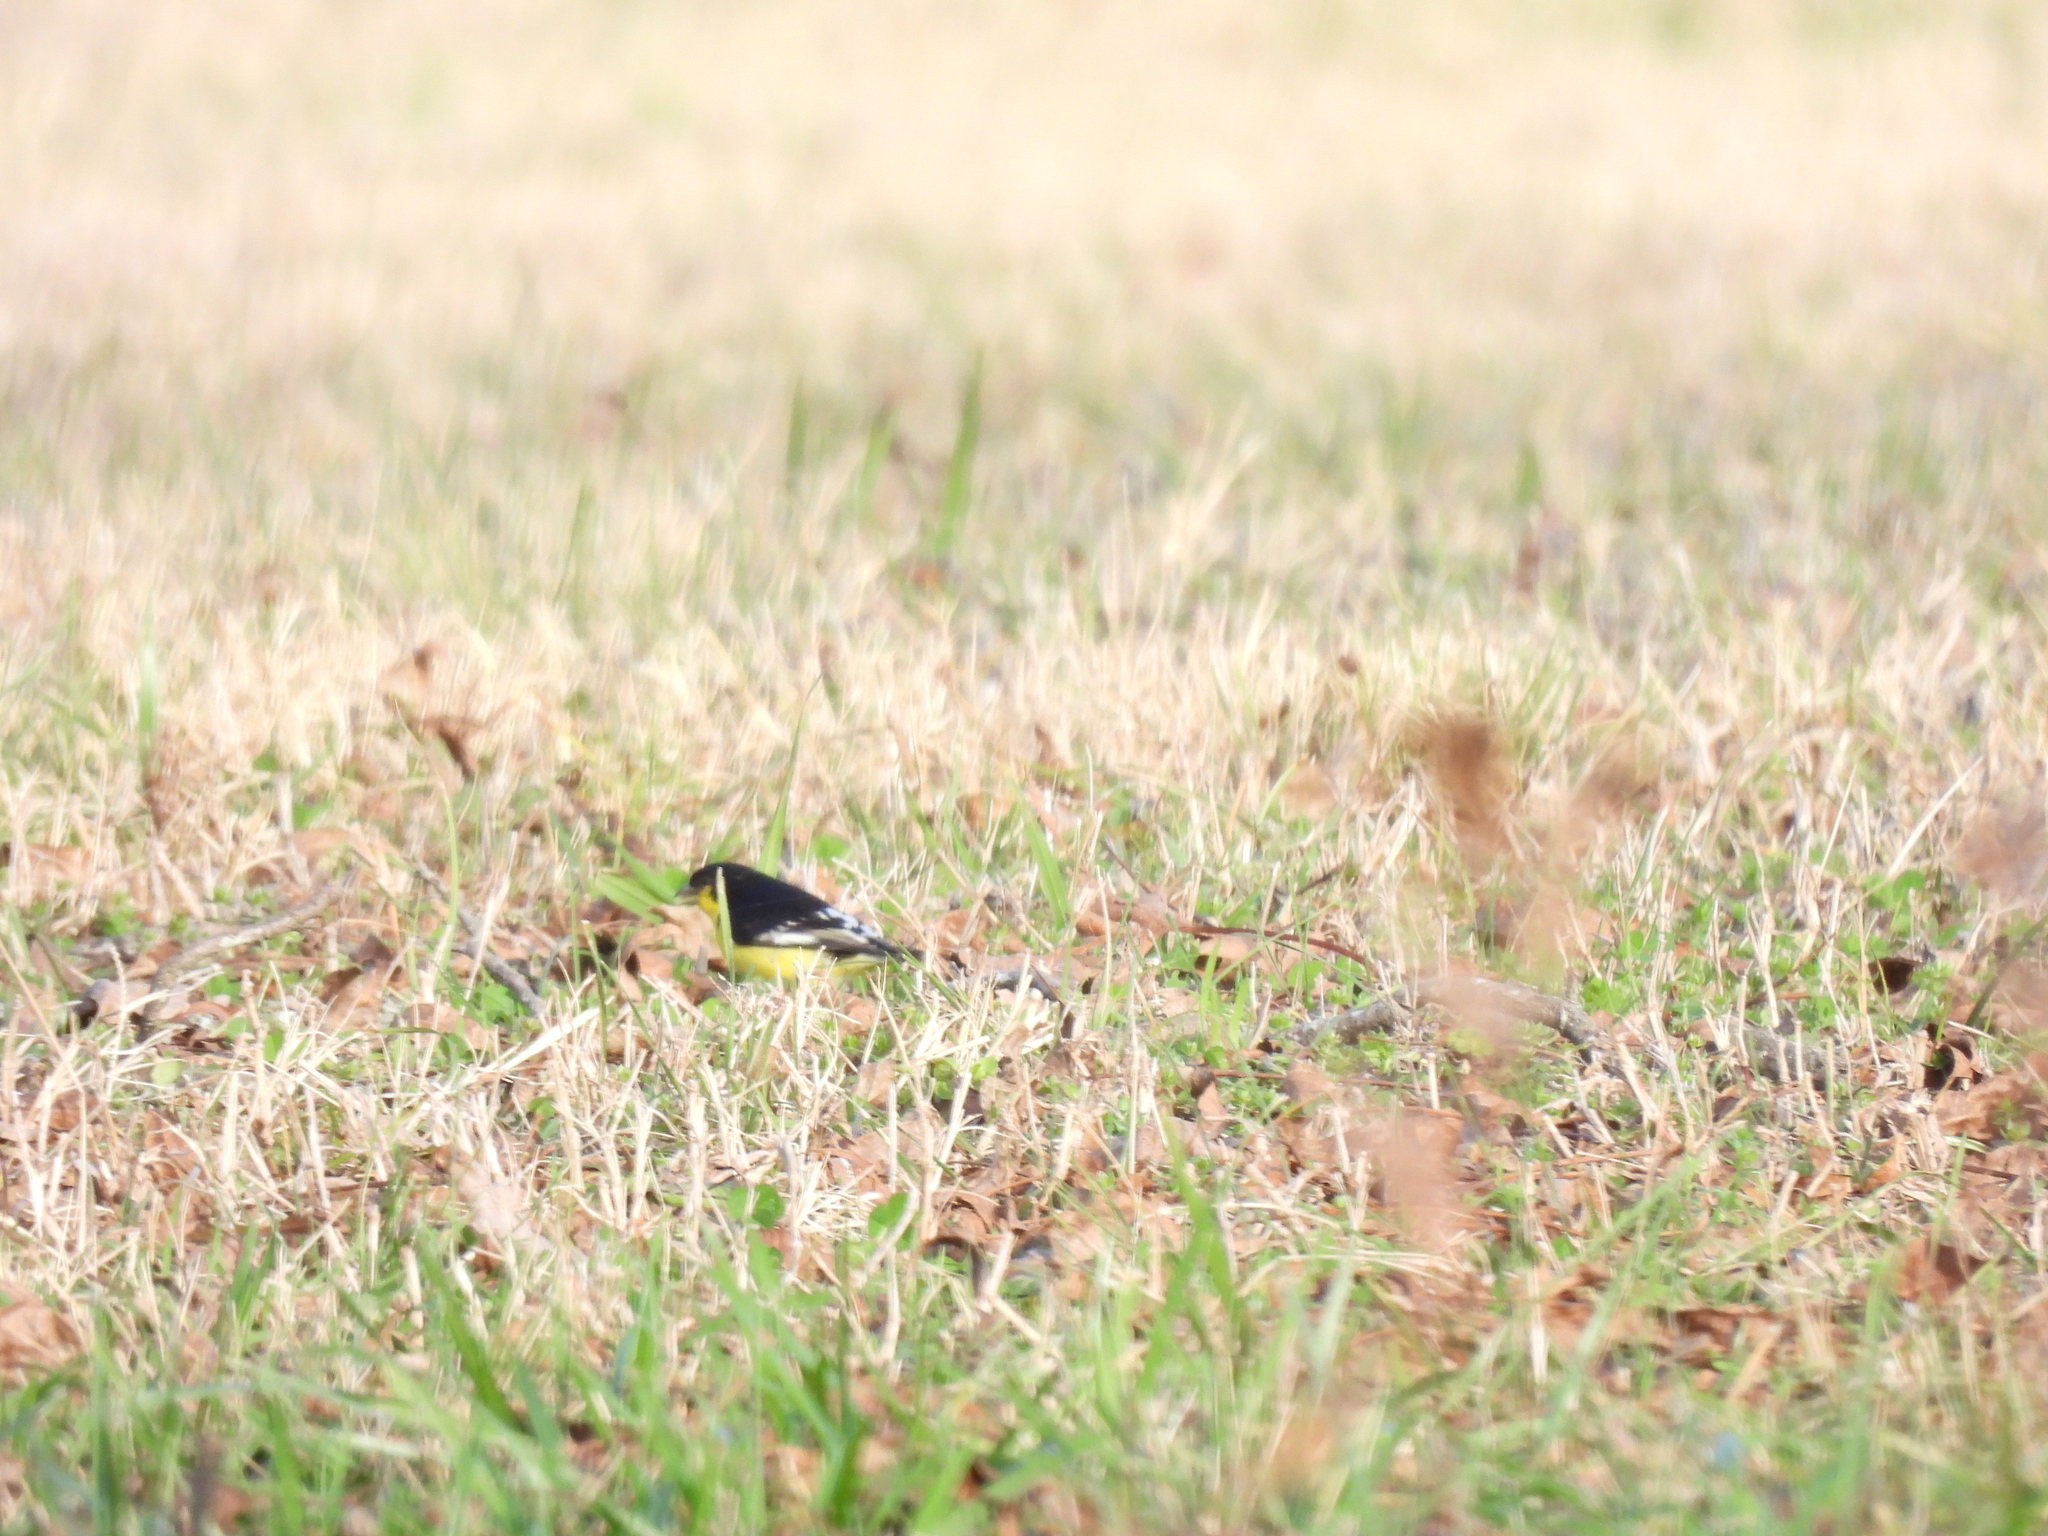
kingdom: Animalia
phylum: Chordata
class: Aves
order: Passeriformes
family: Fringillidae
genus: Spinus
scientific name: Spinus psaltria
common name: Lesser goldfinch
